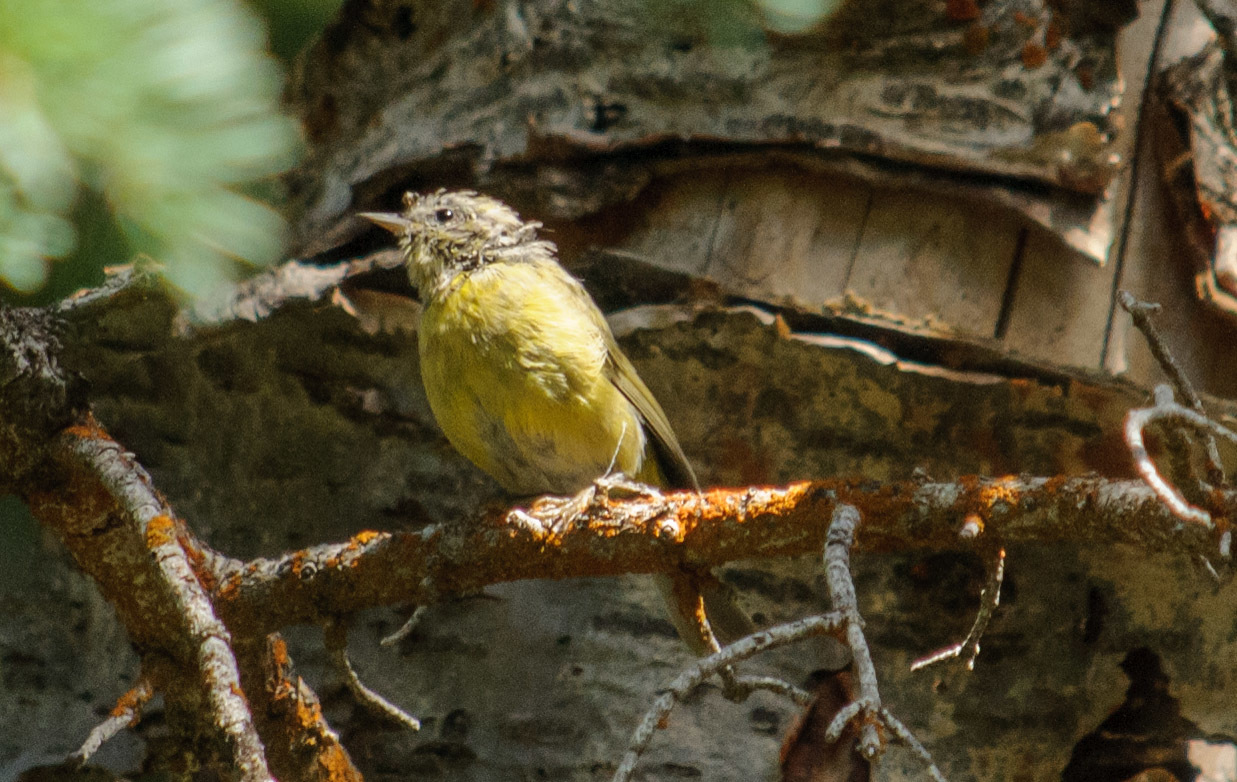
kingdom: Animalia
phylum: Chordata
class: Aves
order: Passeriformes
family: Parulidae
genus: Leiothlypis
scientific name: Leiothlypis celata
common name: Orange-crowned warbler
